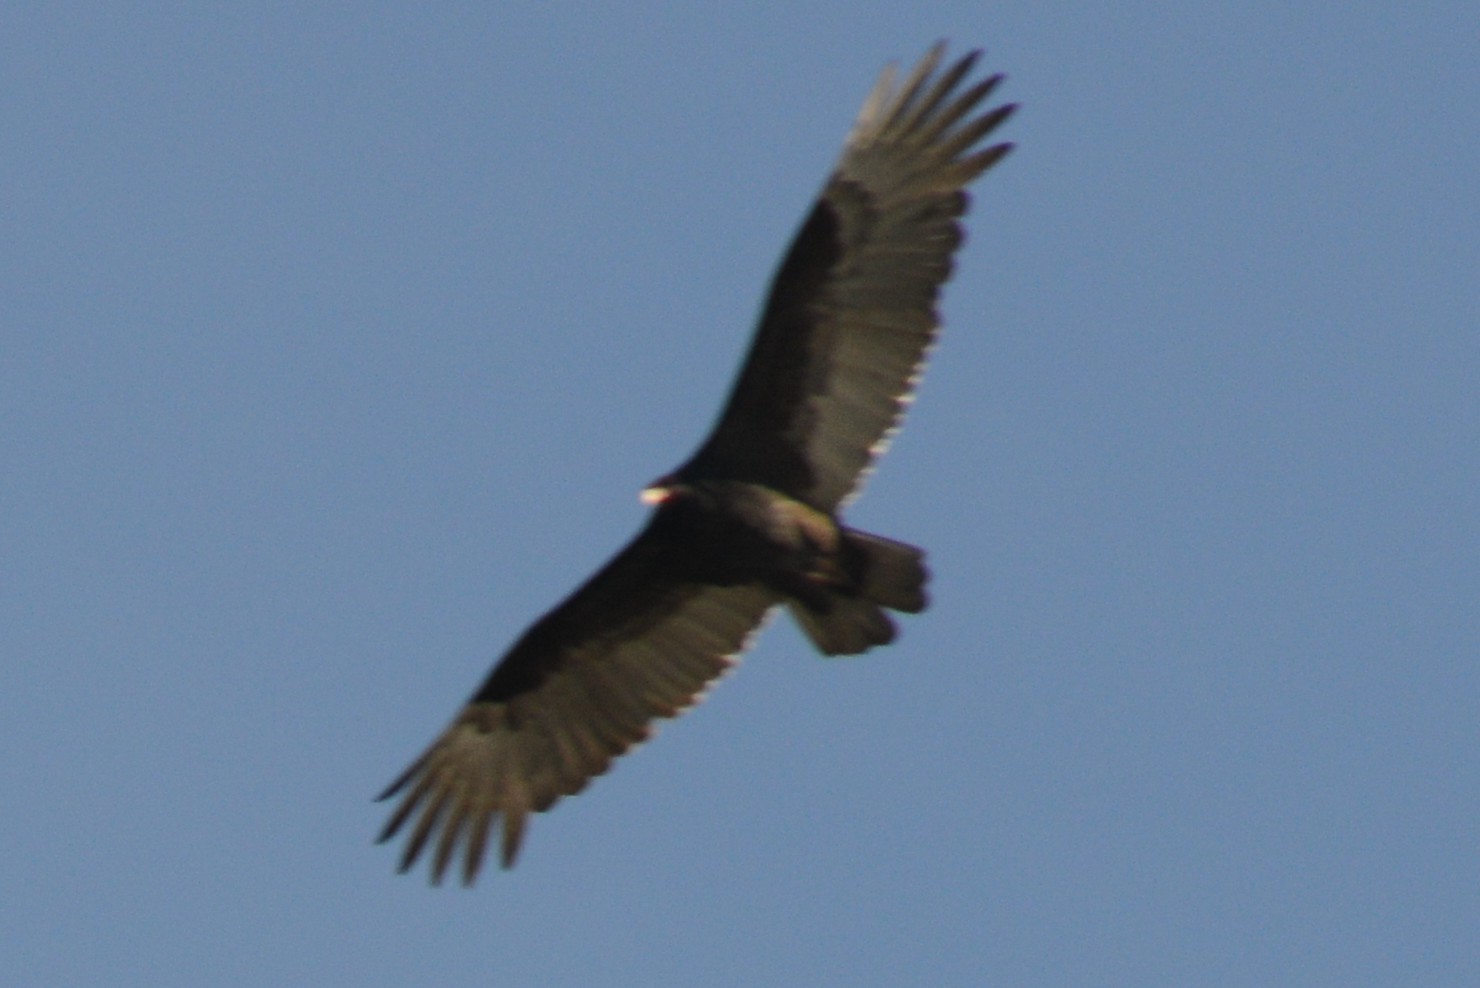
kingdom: Animalia
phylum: Chordata
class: Aves
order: Accipitriformes
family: Cathartidae
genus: Cathartes
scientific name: Cathartes aura
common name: Turkey vulture
